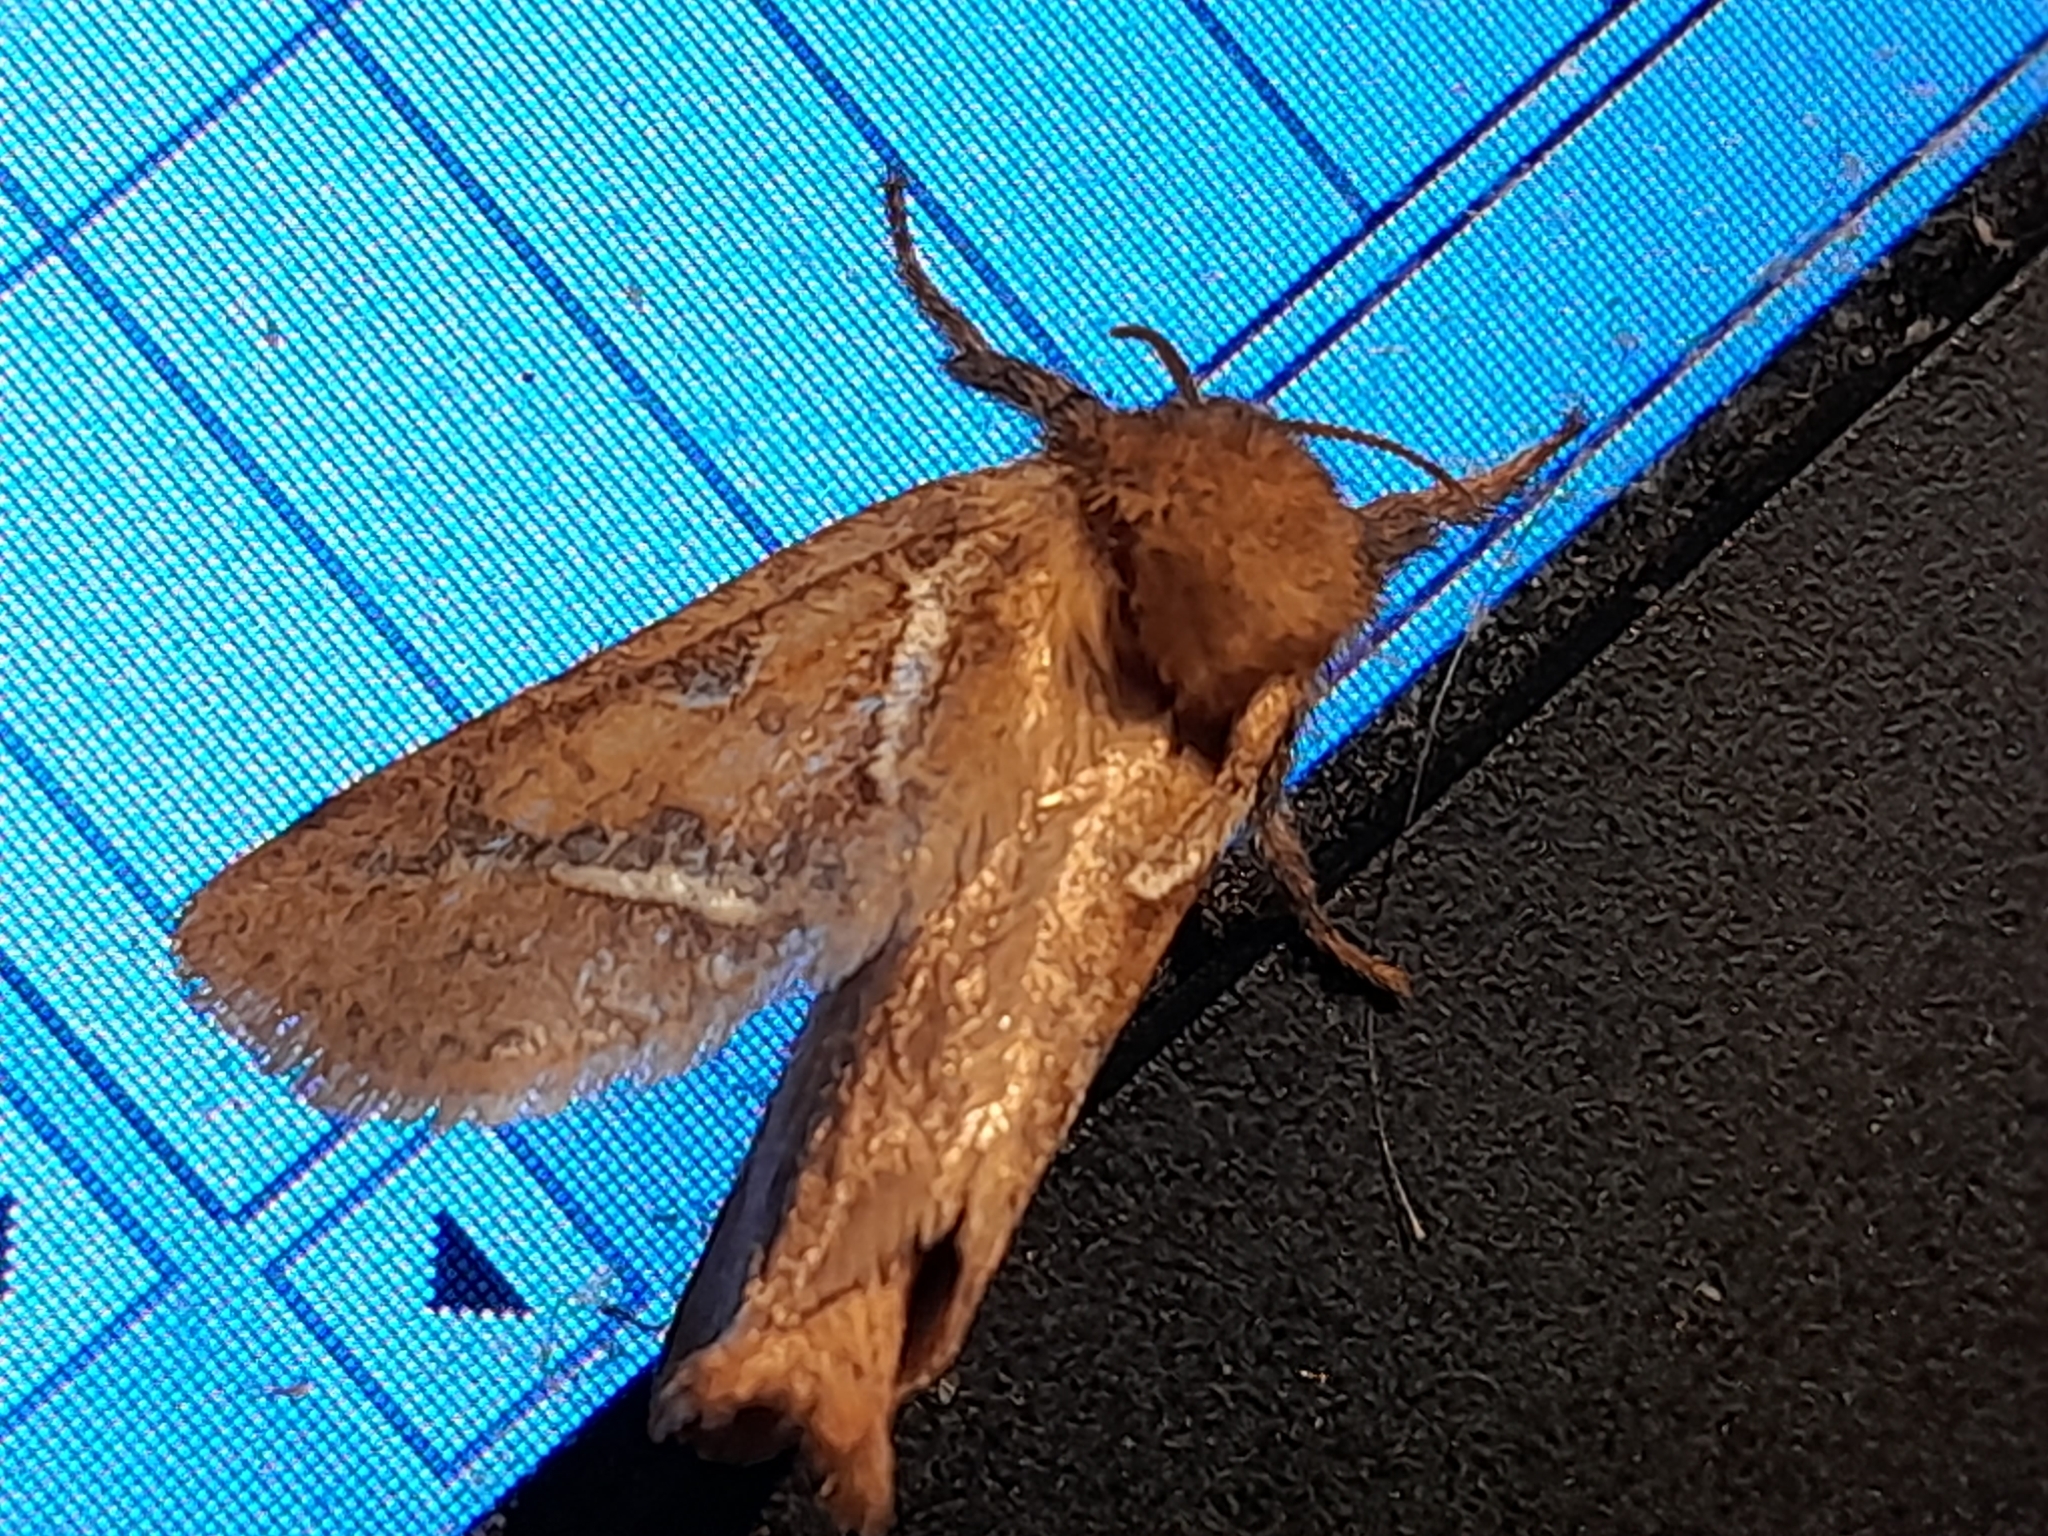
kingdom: Animalia
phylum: Arthropoda
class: Insecta
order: Lepidoptera
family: Hepialidae
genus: Triodia
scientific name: Triodia sylvina
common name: Orange swift
